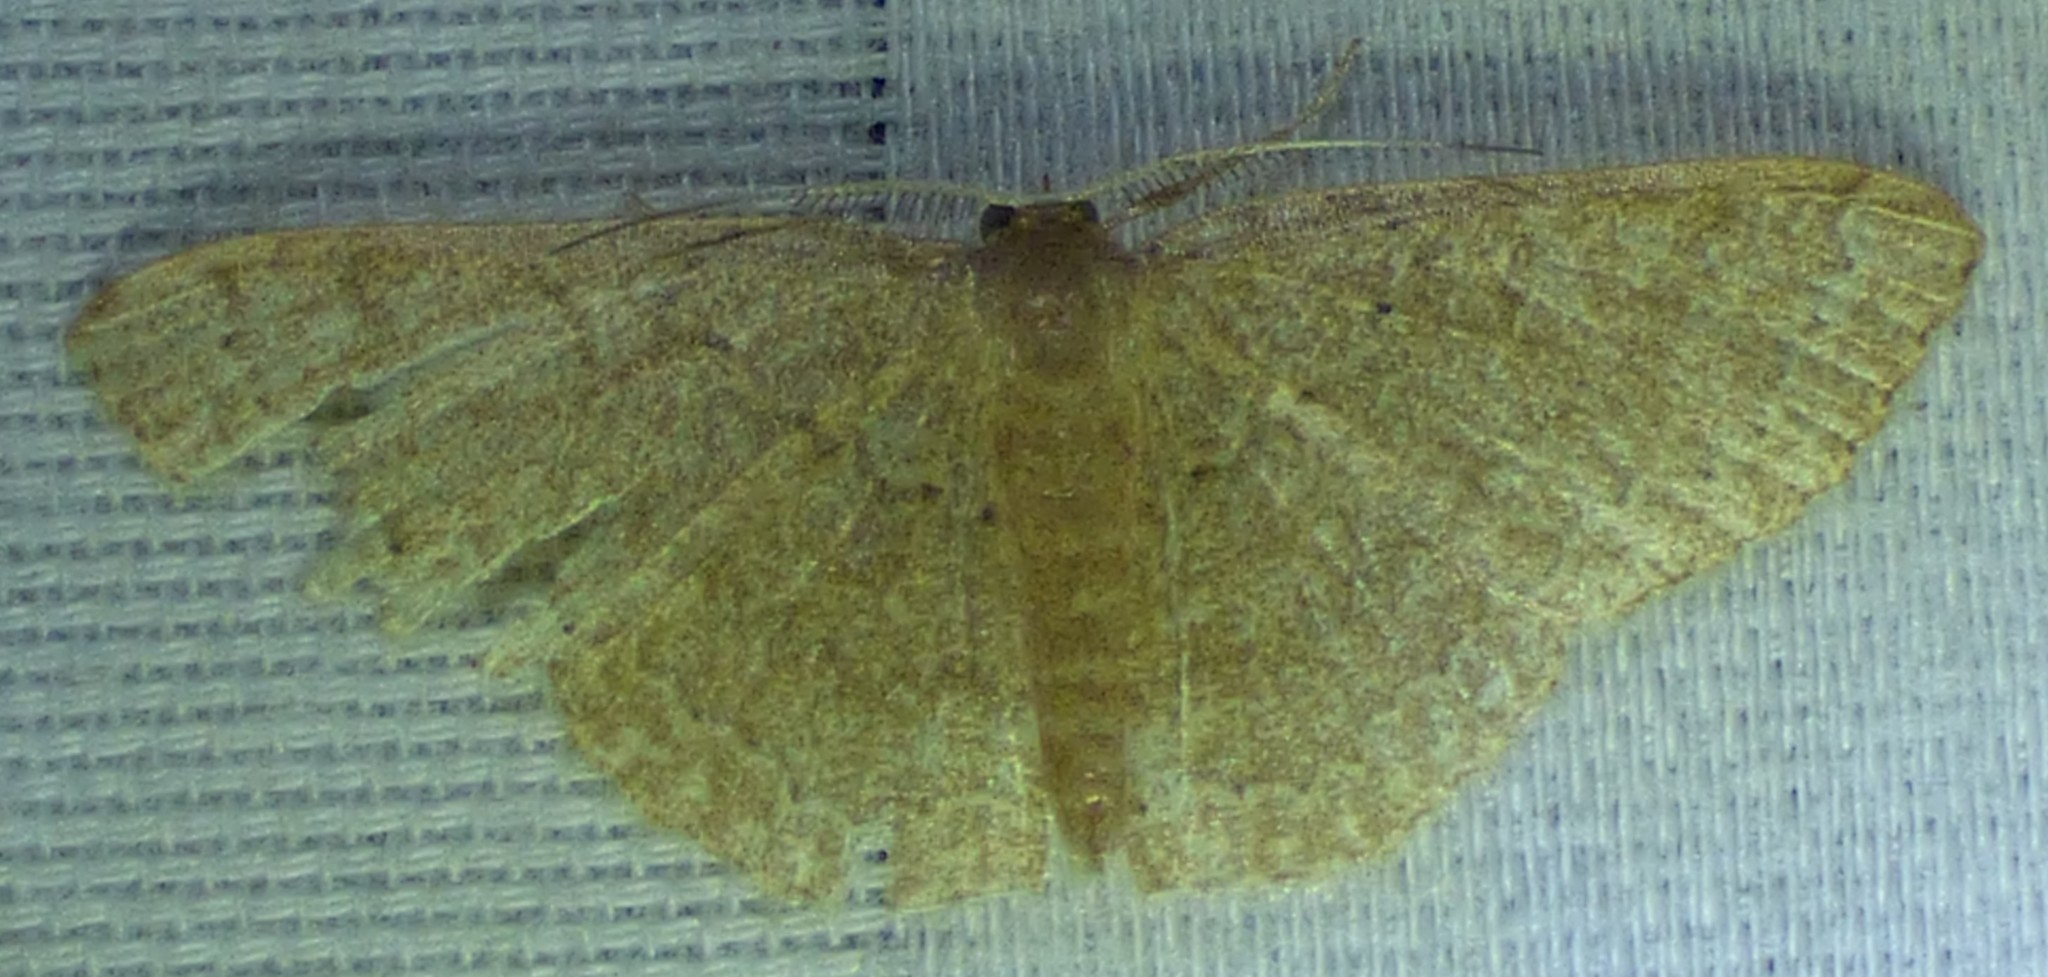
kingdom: Animalia
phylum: Arthropoda
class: Insecta
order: Lepidoptera
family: Geometridae
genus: Pleuroprucha
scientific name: Pleuroprucha insulsaria
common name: Common tan wave
